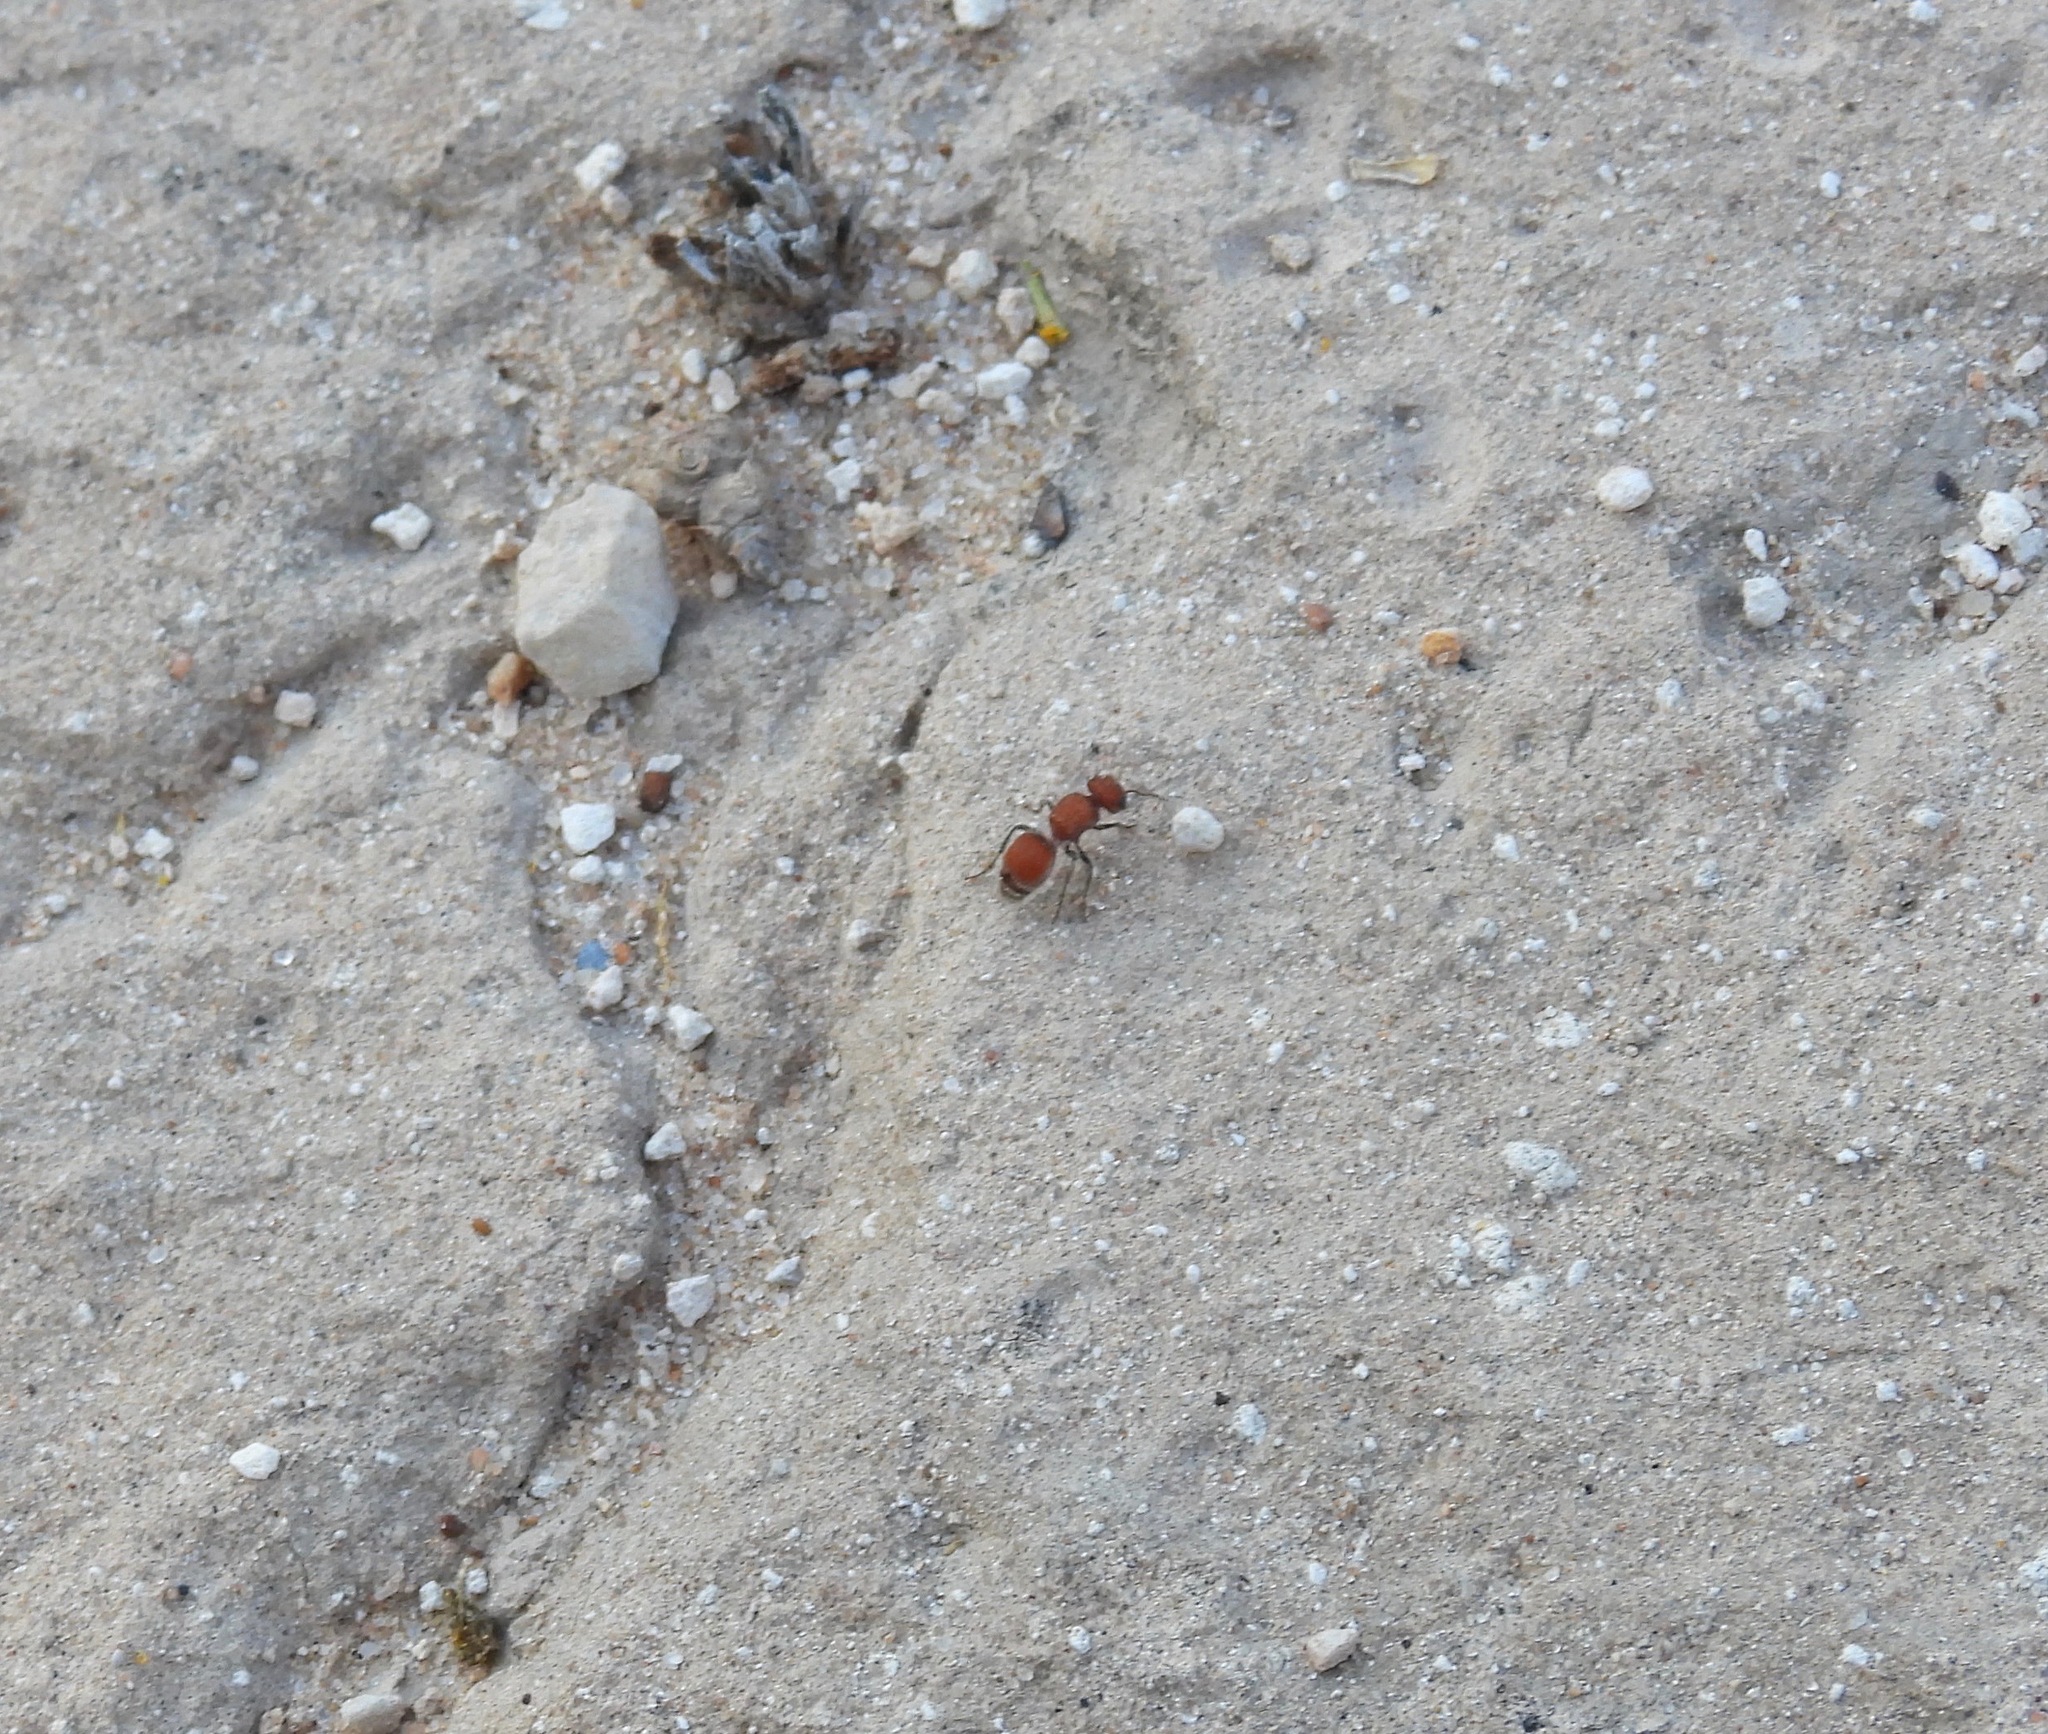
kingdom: Animalia
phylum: Arthropoda
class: Insecta
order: Hymenoptera
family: Mutillidae
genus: Pseudomethoca
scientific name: Pseudomethoca
